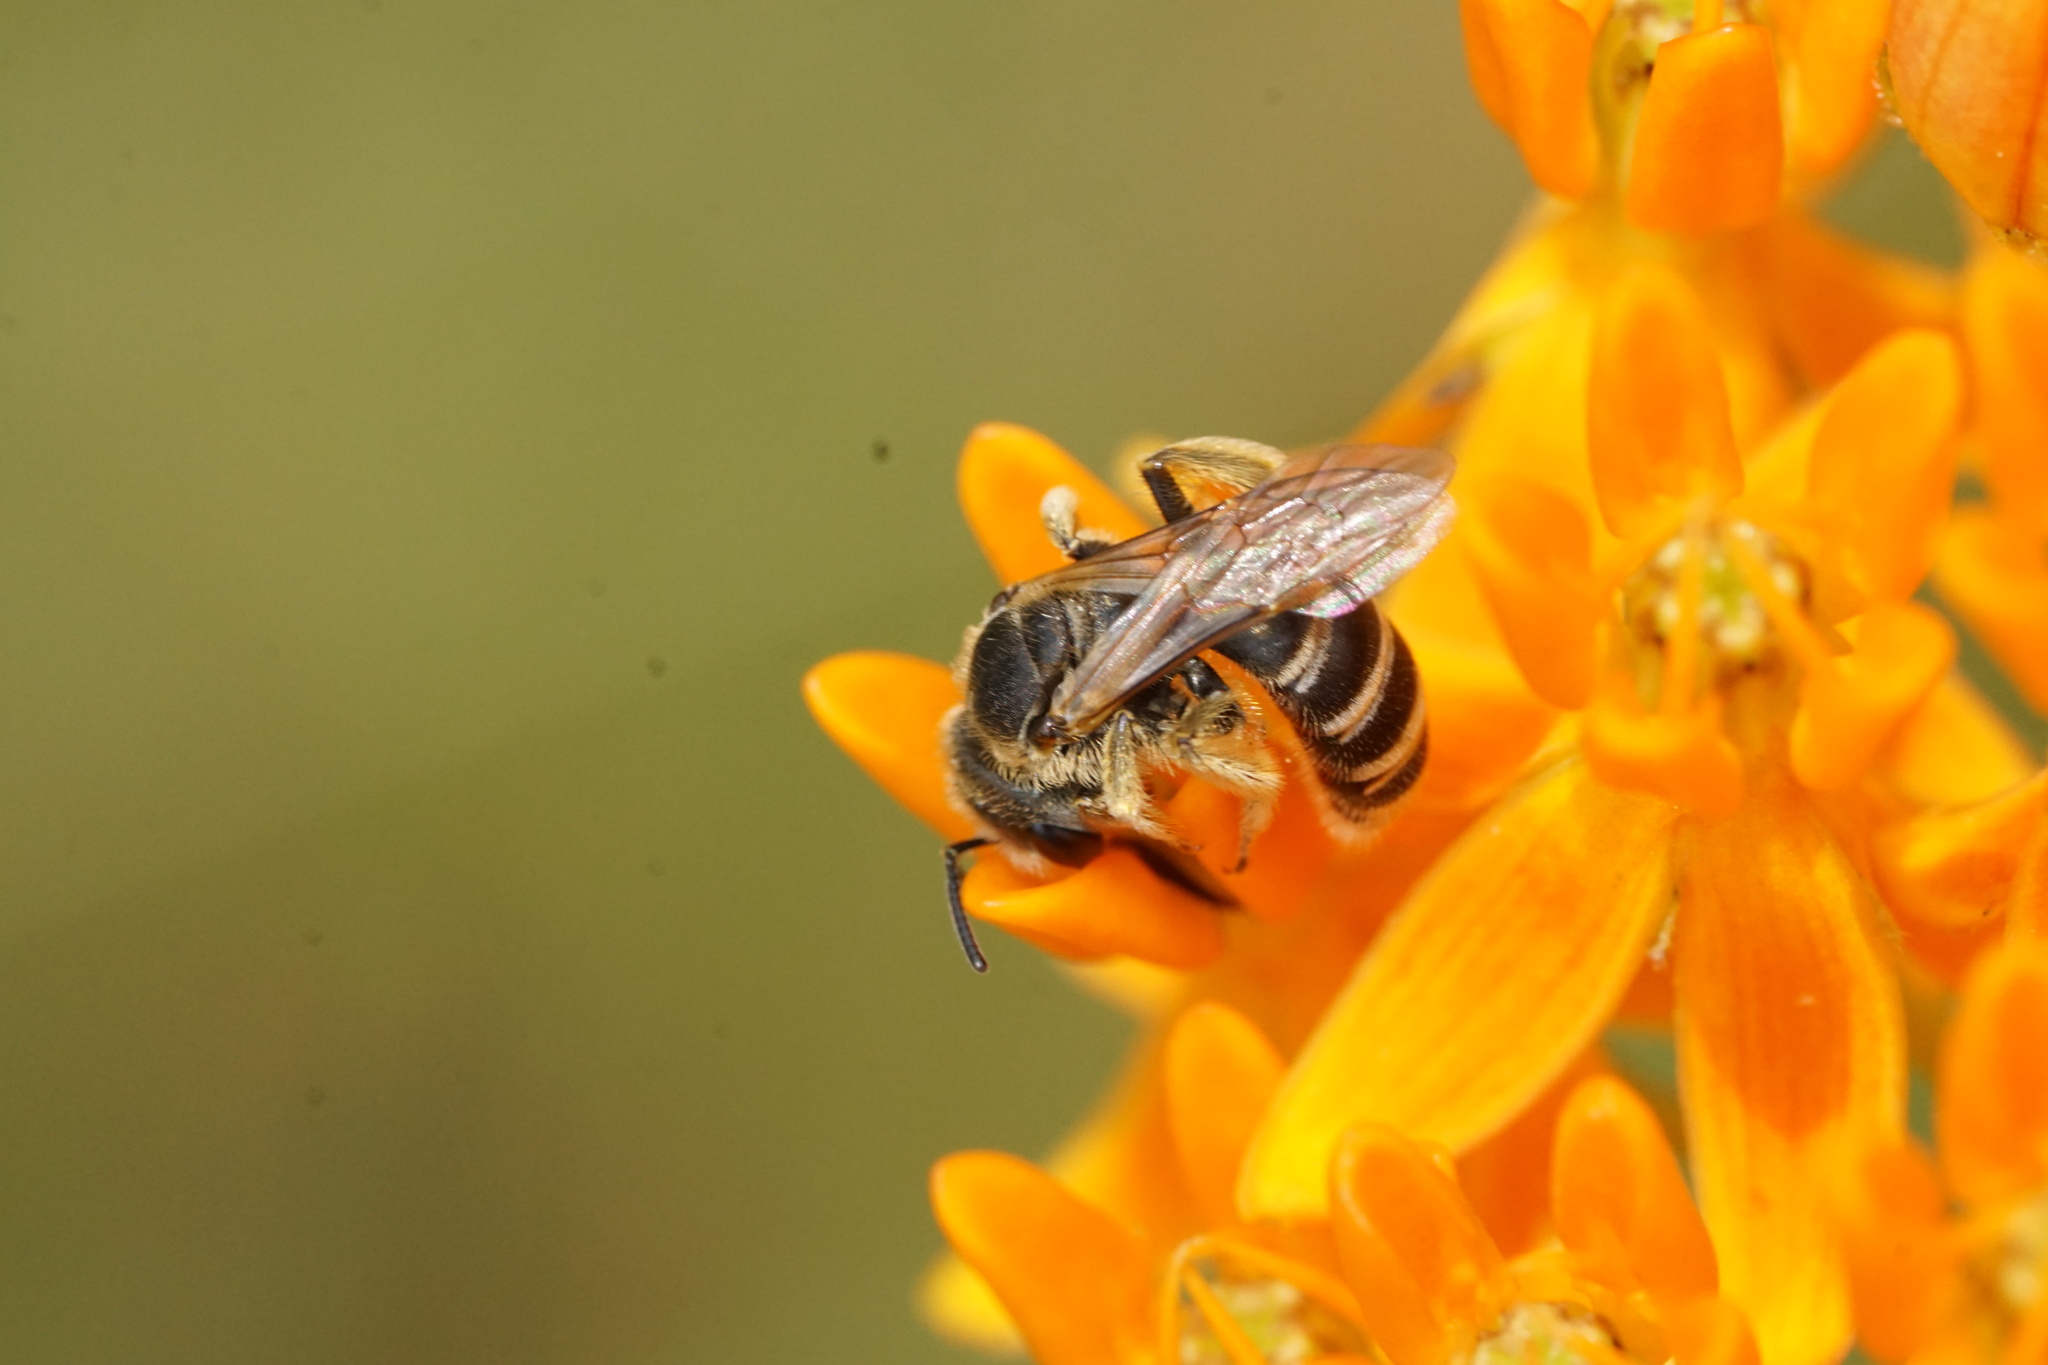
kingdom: Animalia
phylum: Arthropoda
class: Insecta
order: Hymenoptera
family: Halictidae
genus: Halictus
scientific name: Halictus ligatus
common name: Ligated furrow bee
